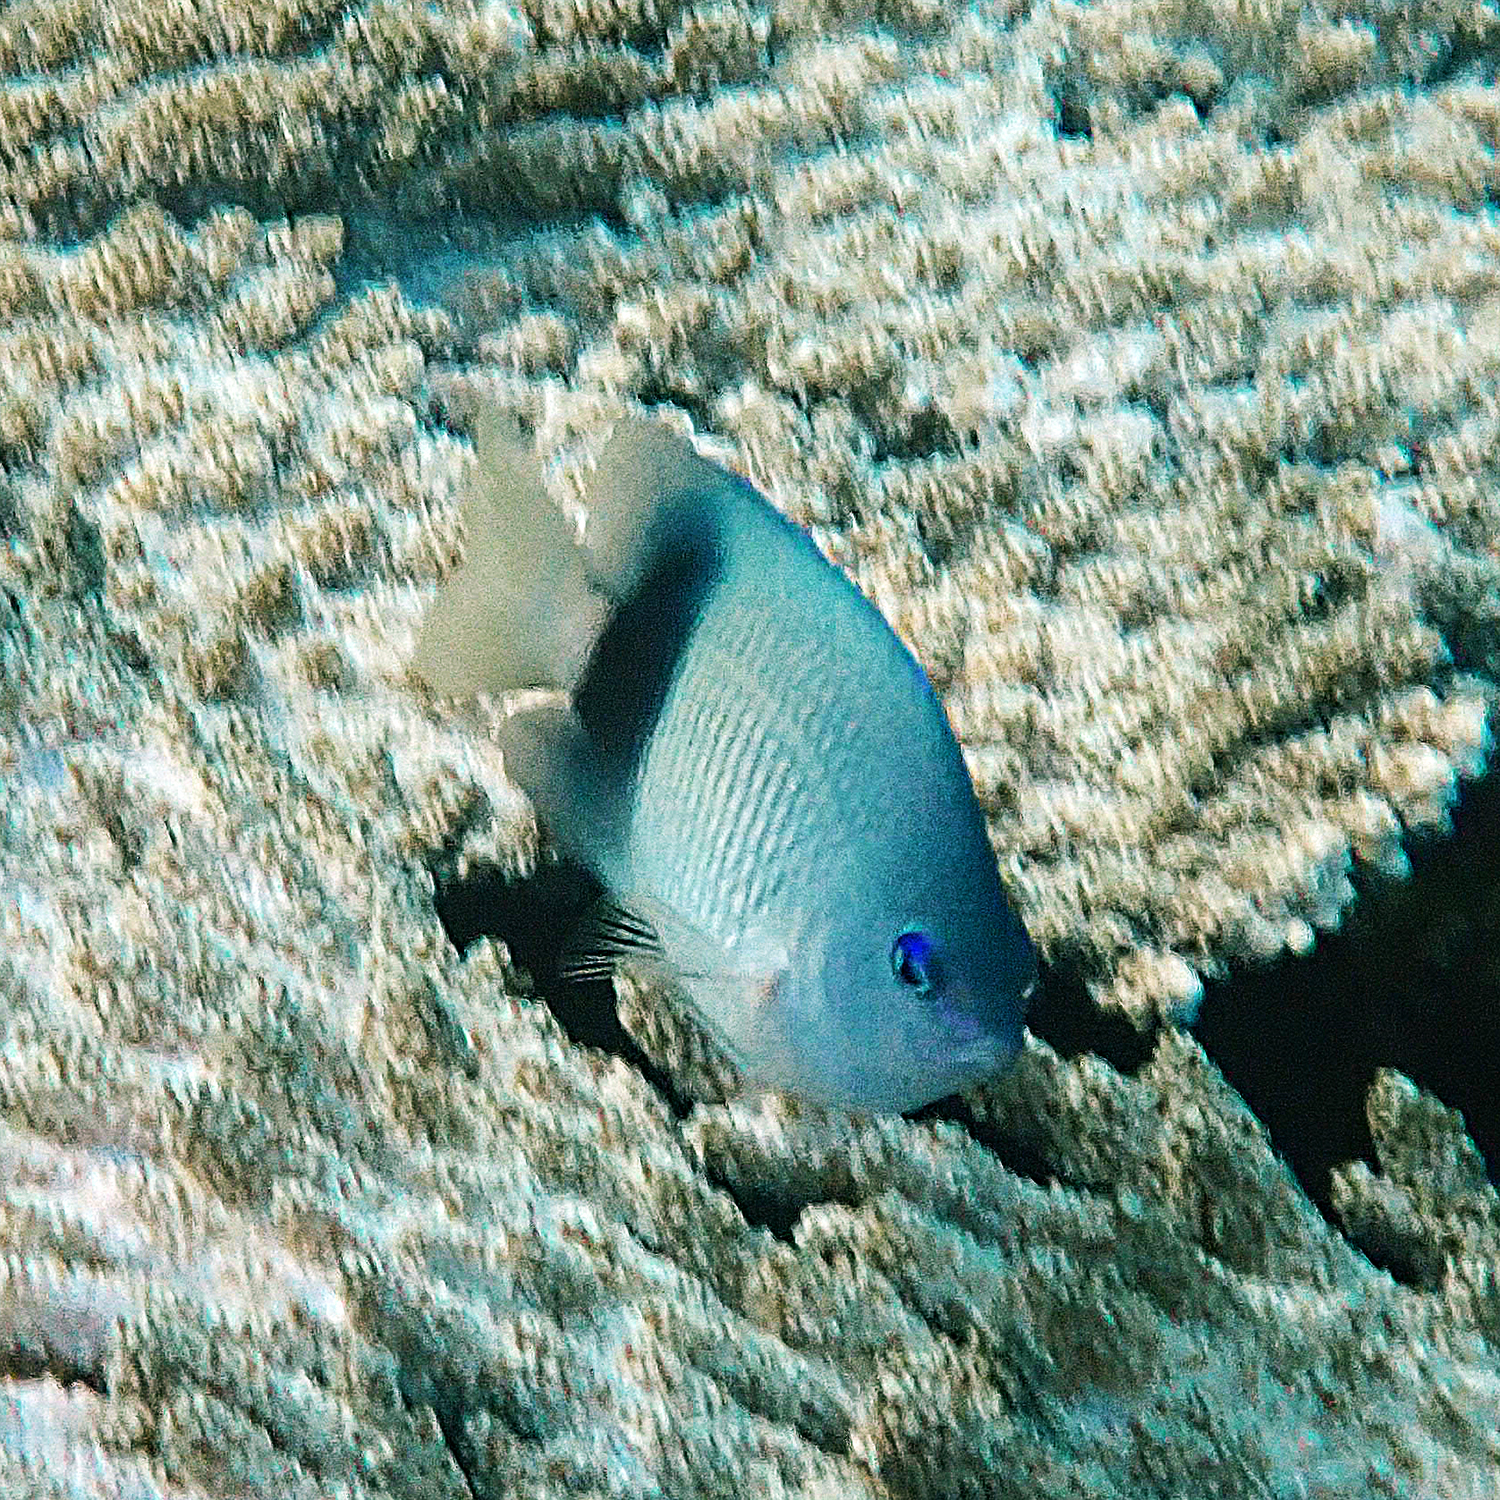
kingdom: Animalia
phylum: Chordata
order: Perciformes
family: Pomacentridae
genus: Plectroglyphidodon
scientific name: Plectroglyphidodon johnstonianus
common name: Johnston damsel
